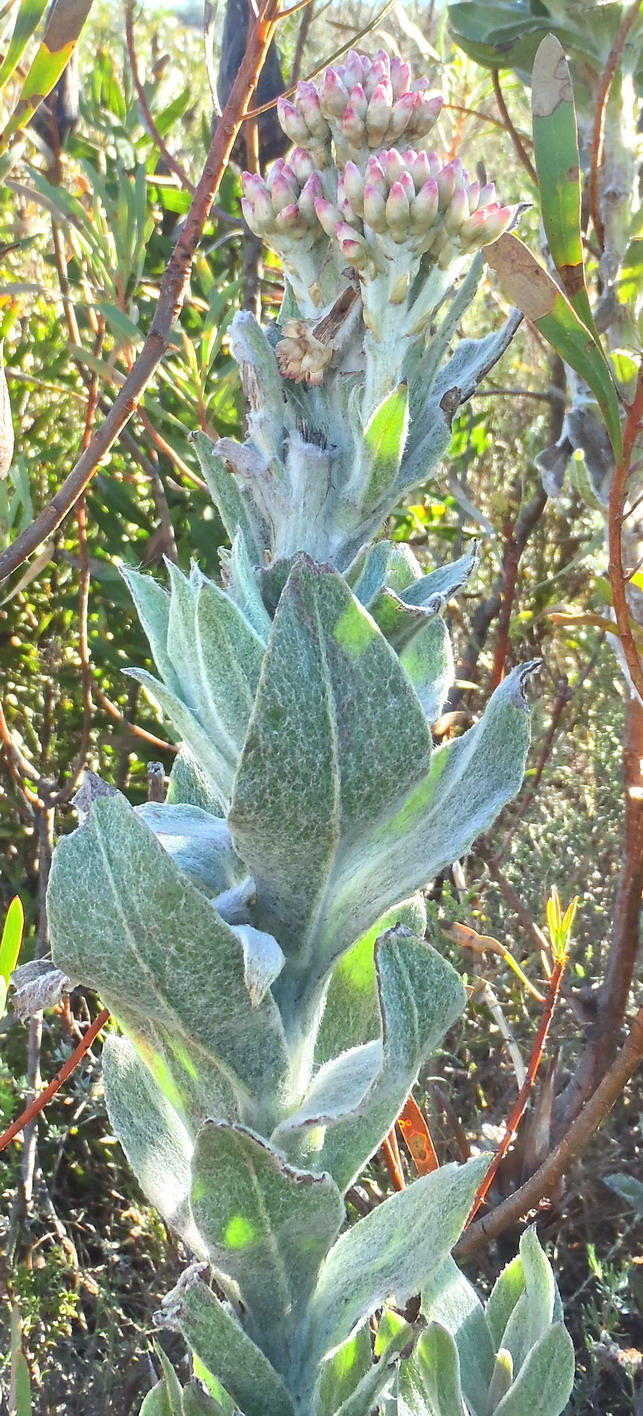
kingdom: Plantae
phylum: Tracheophyta
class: Magnoliopsida
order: Asterales
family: Asteraceae
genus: Syncarpha
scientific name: Syncarpha milleflora
